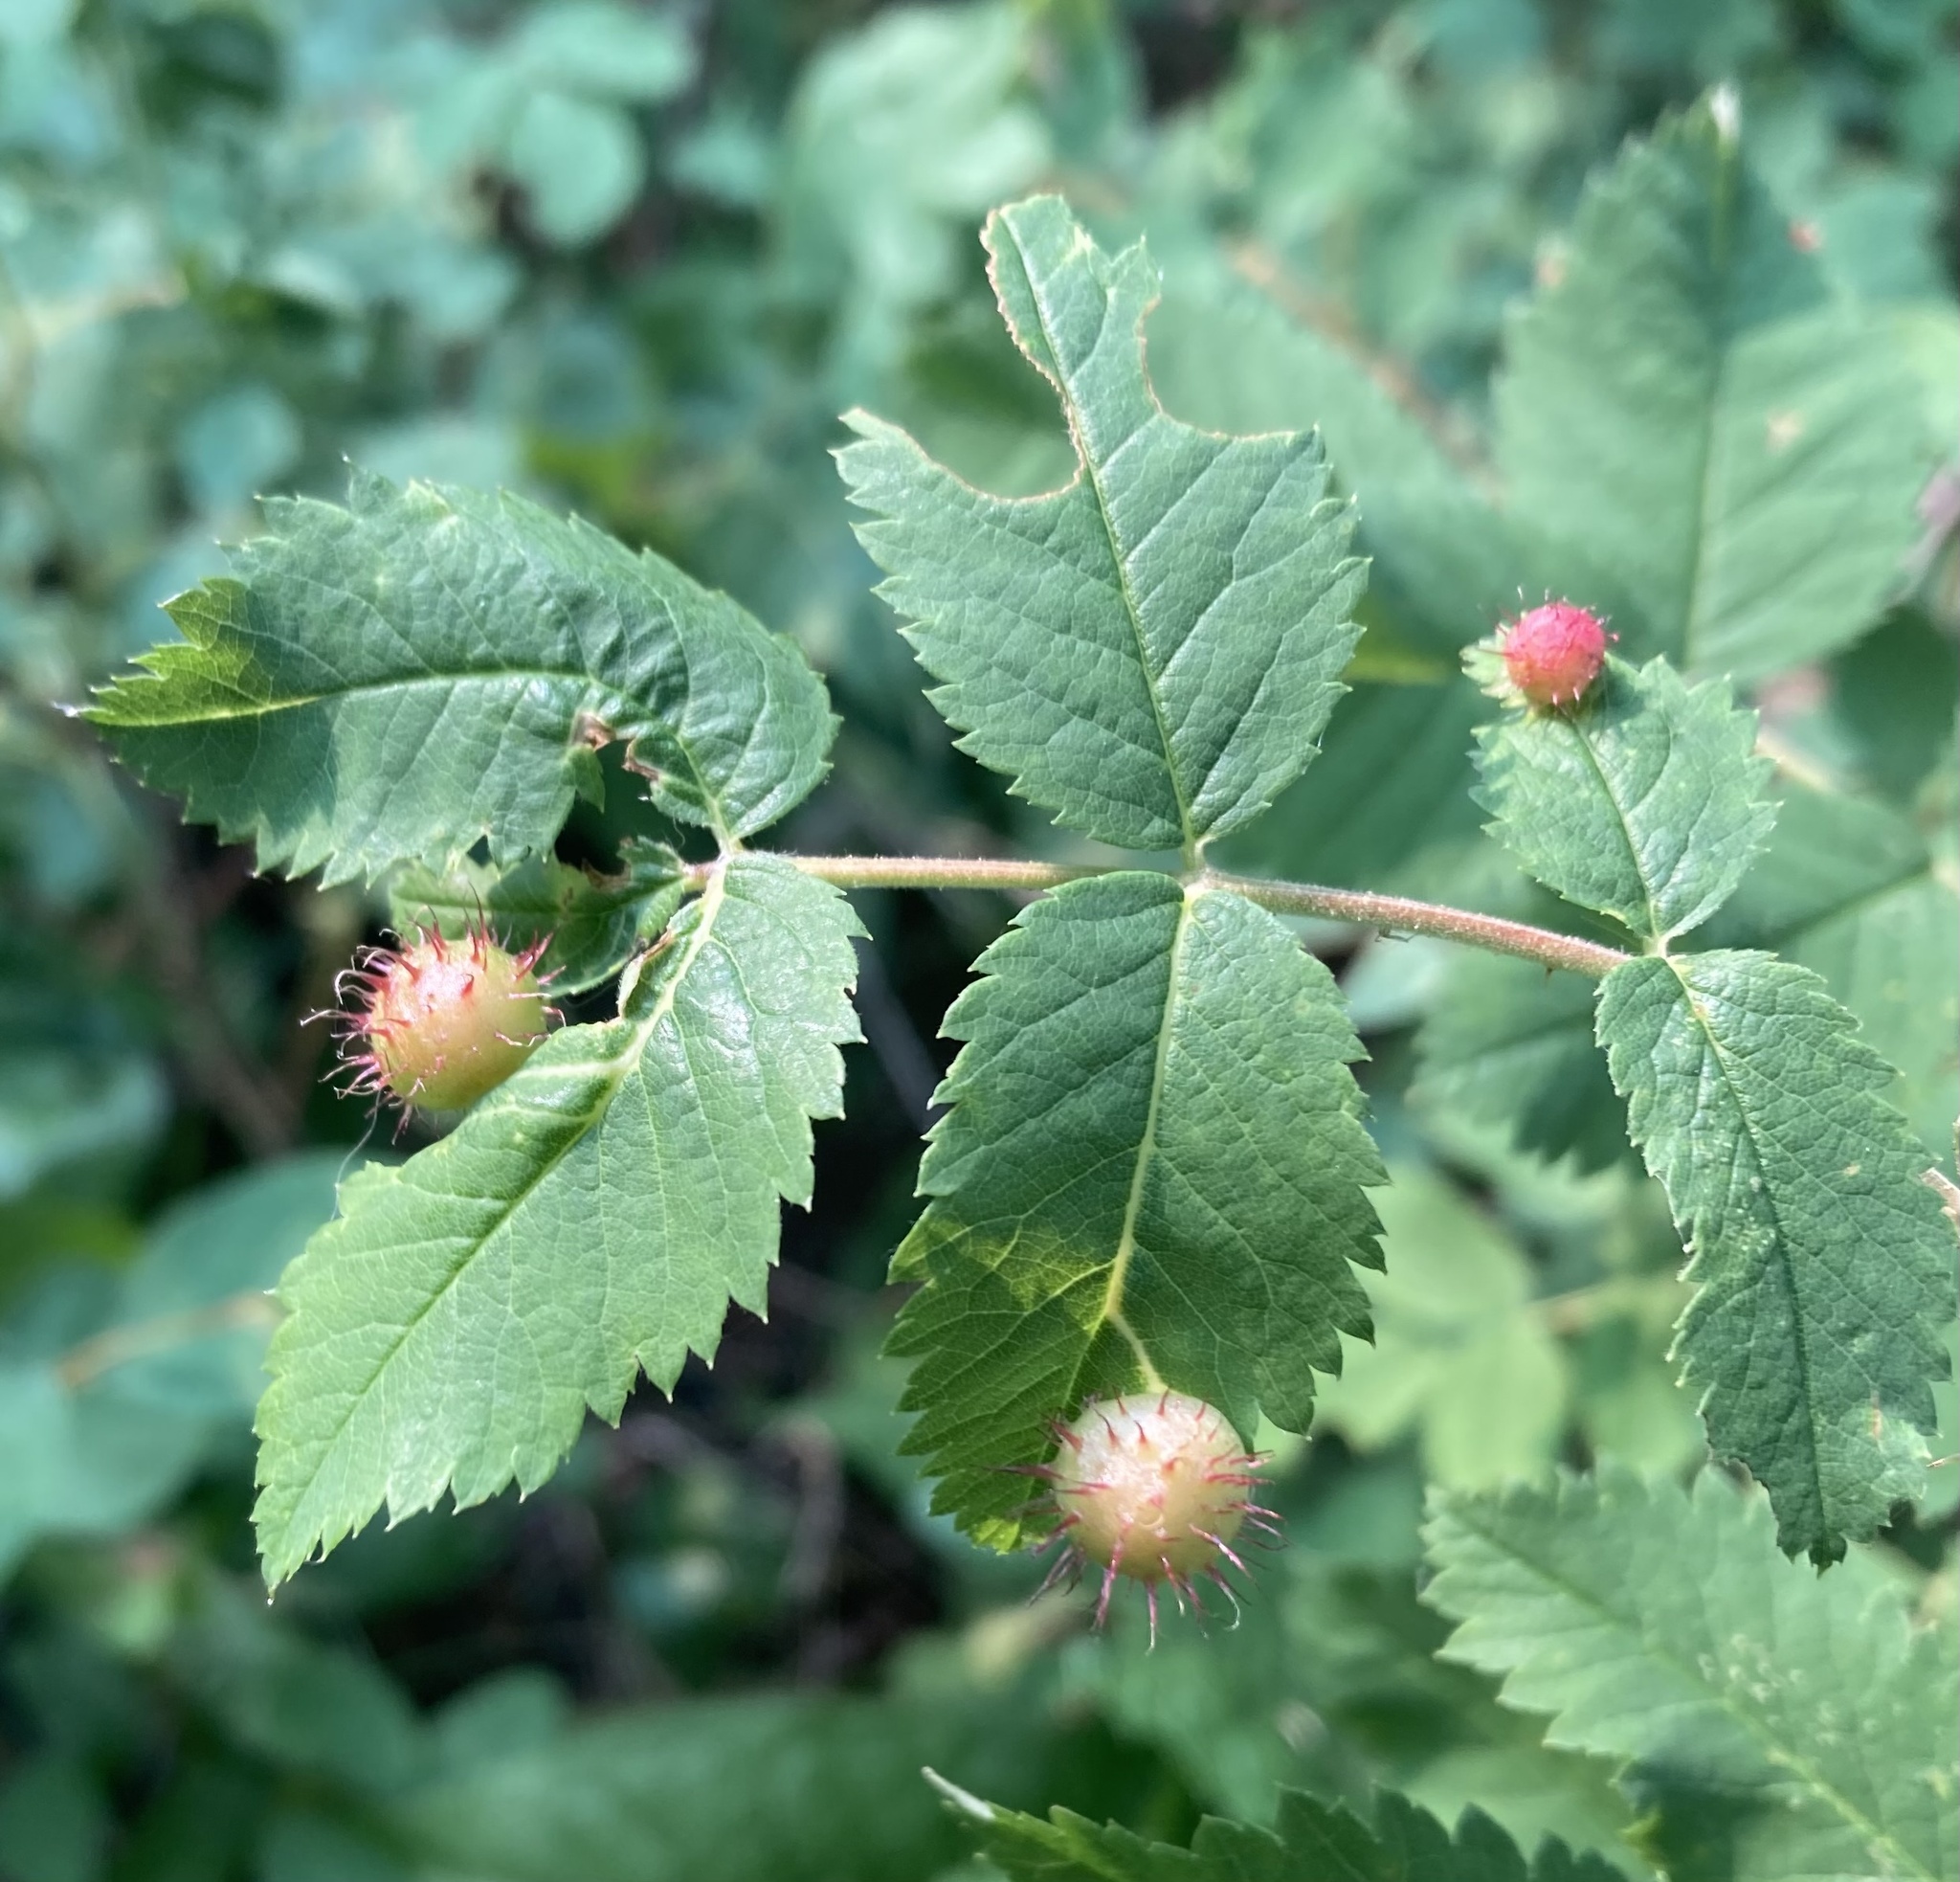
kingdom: Animalia
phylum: Arthropoda
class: Insecta
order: Hymenoptera
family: Cynipidae
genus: Diplolepis
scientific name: Diplolepis polita
